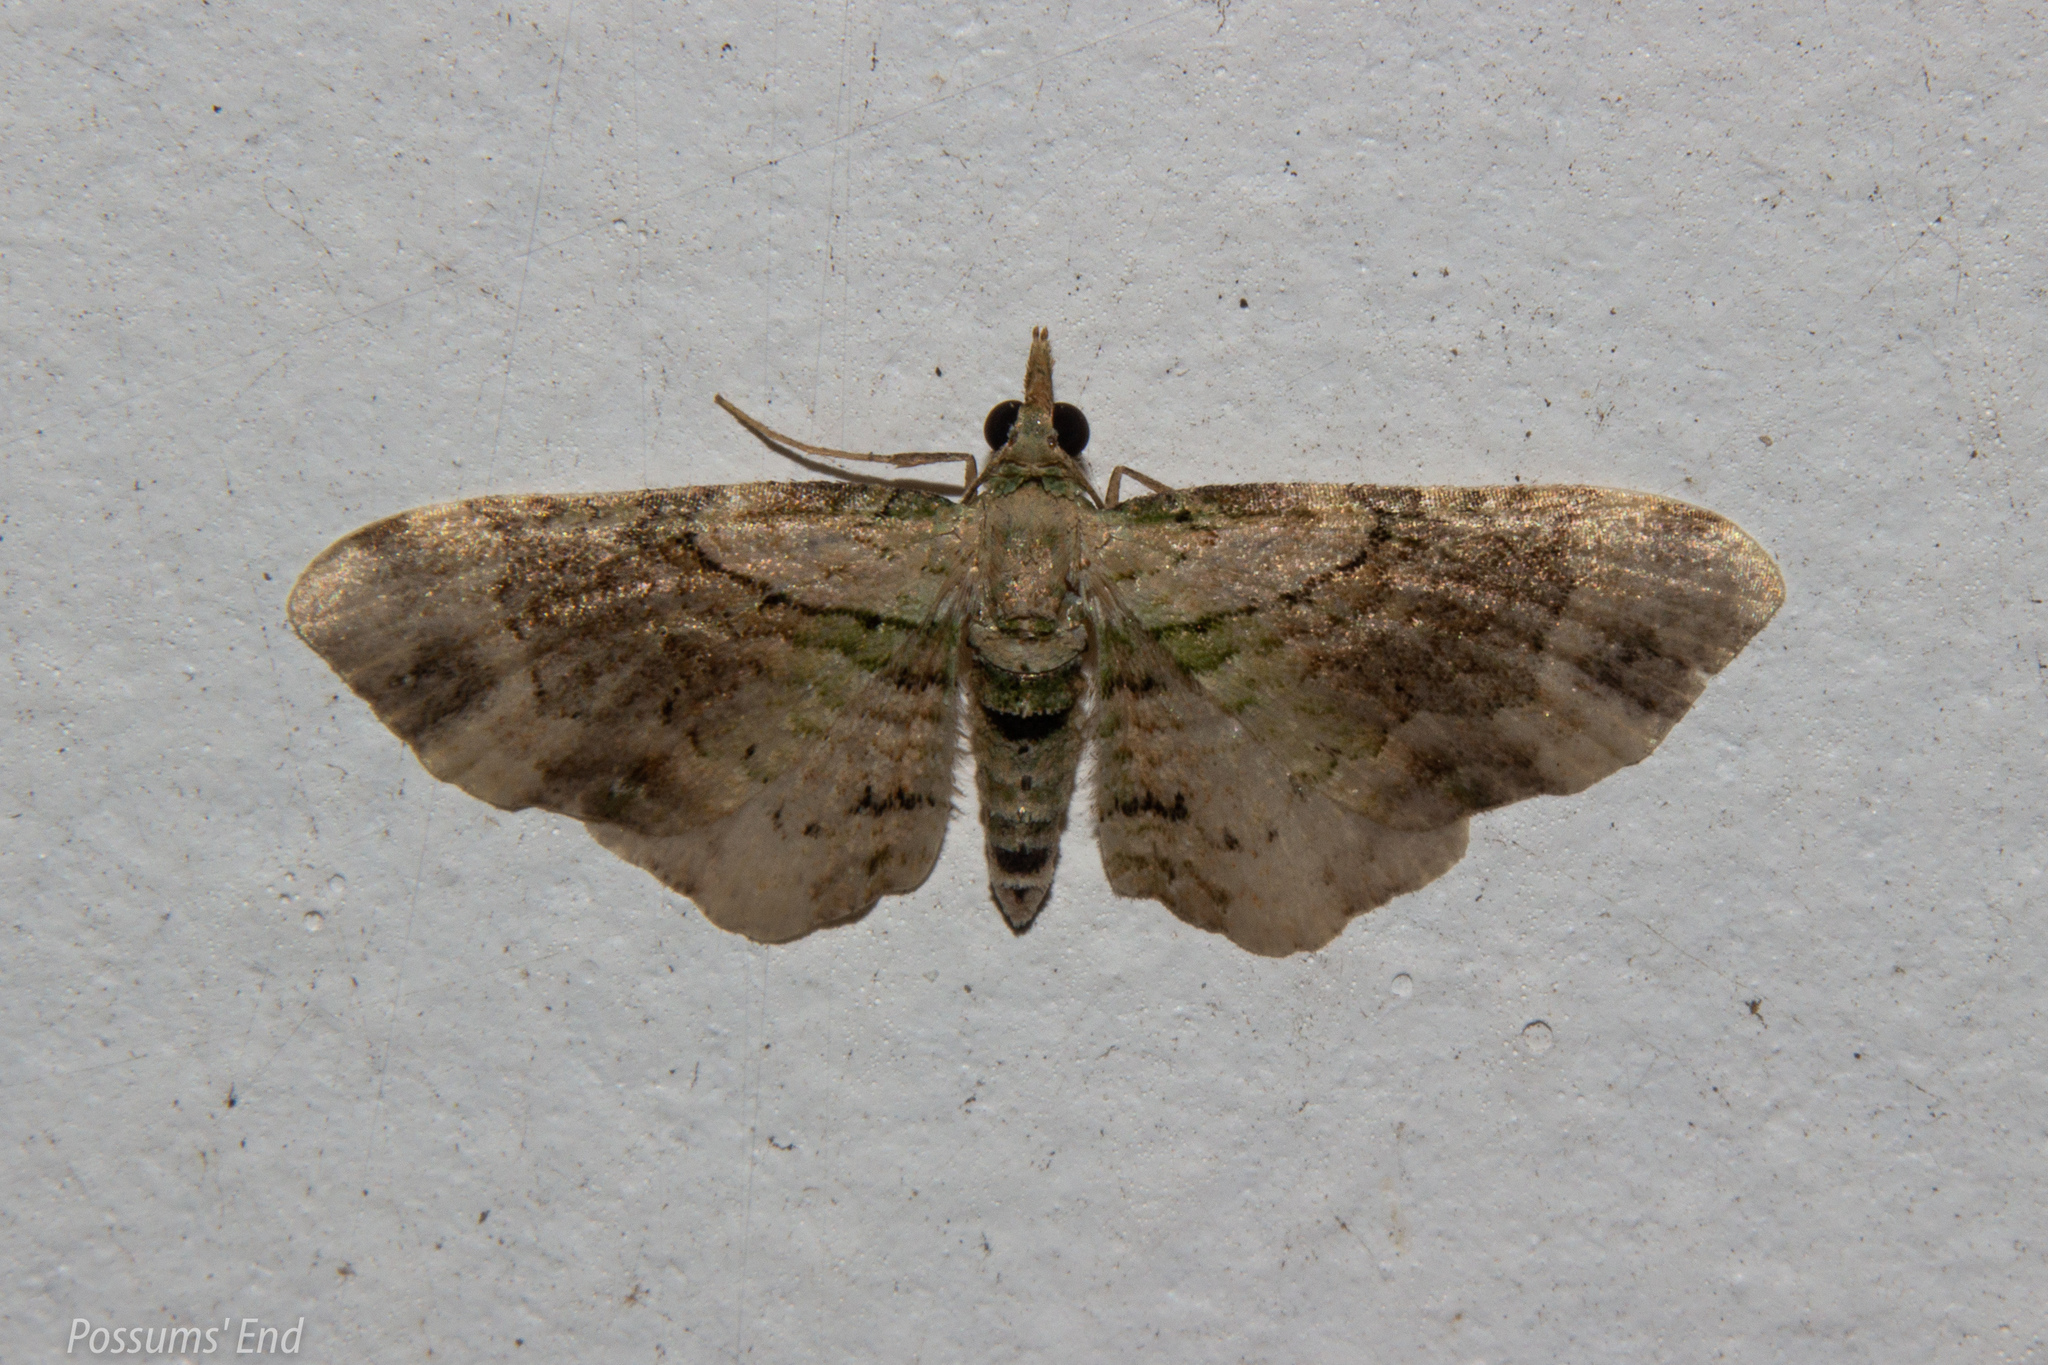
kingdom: Animalia
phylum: Arthropoda
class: Insecta
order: Lepidoptera
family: Geometridae
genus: Chloroclystis
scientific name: Chloroclystis
